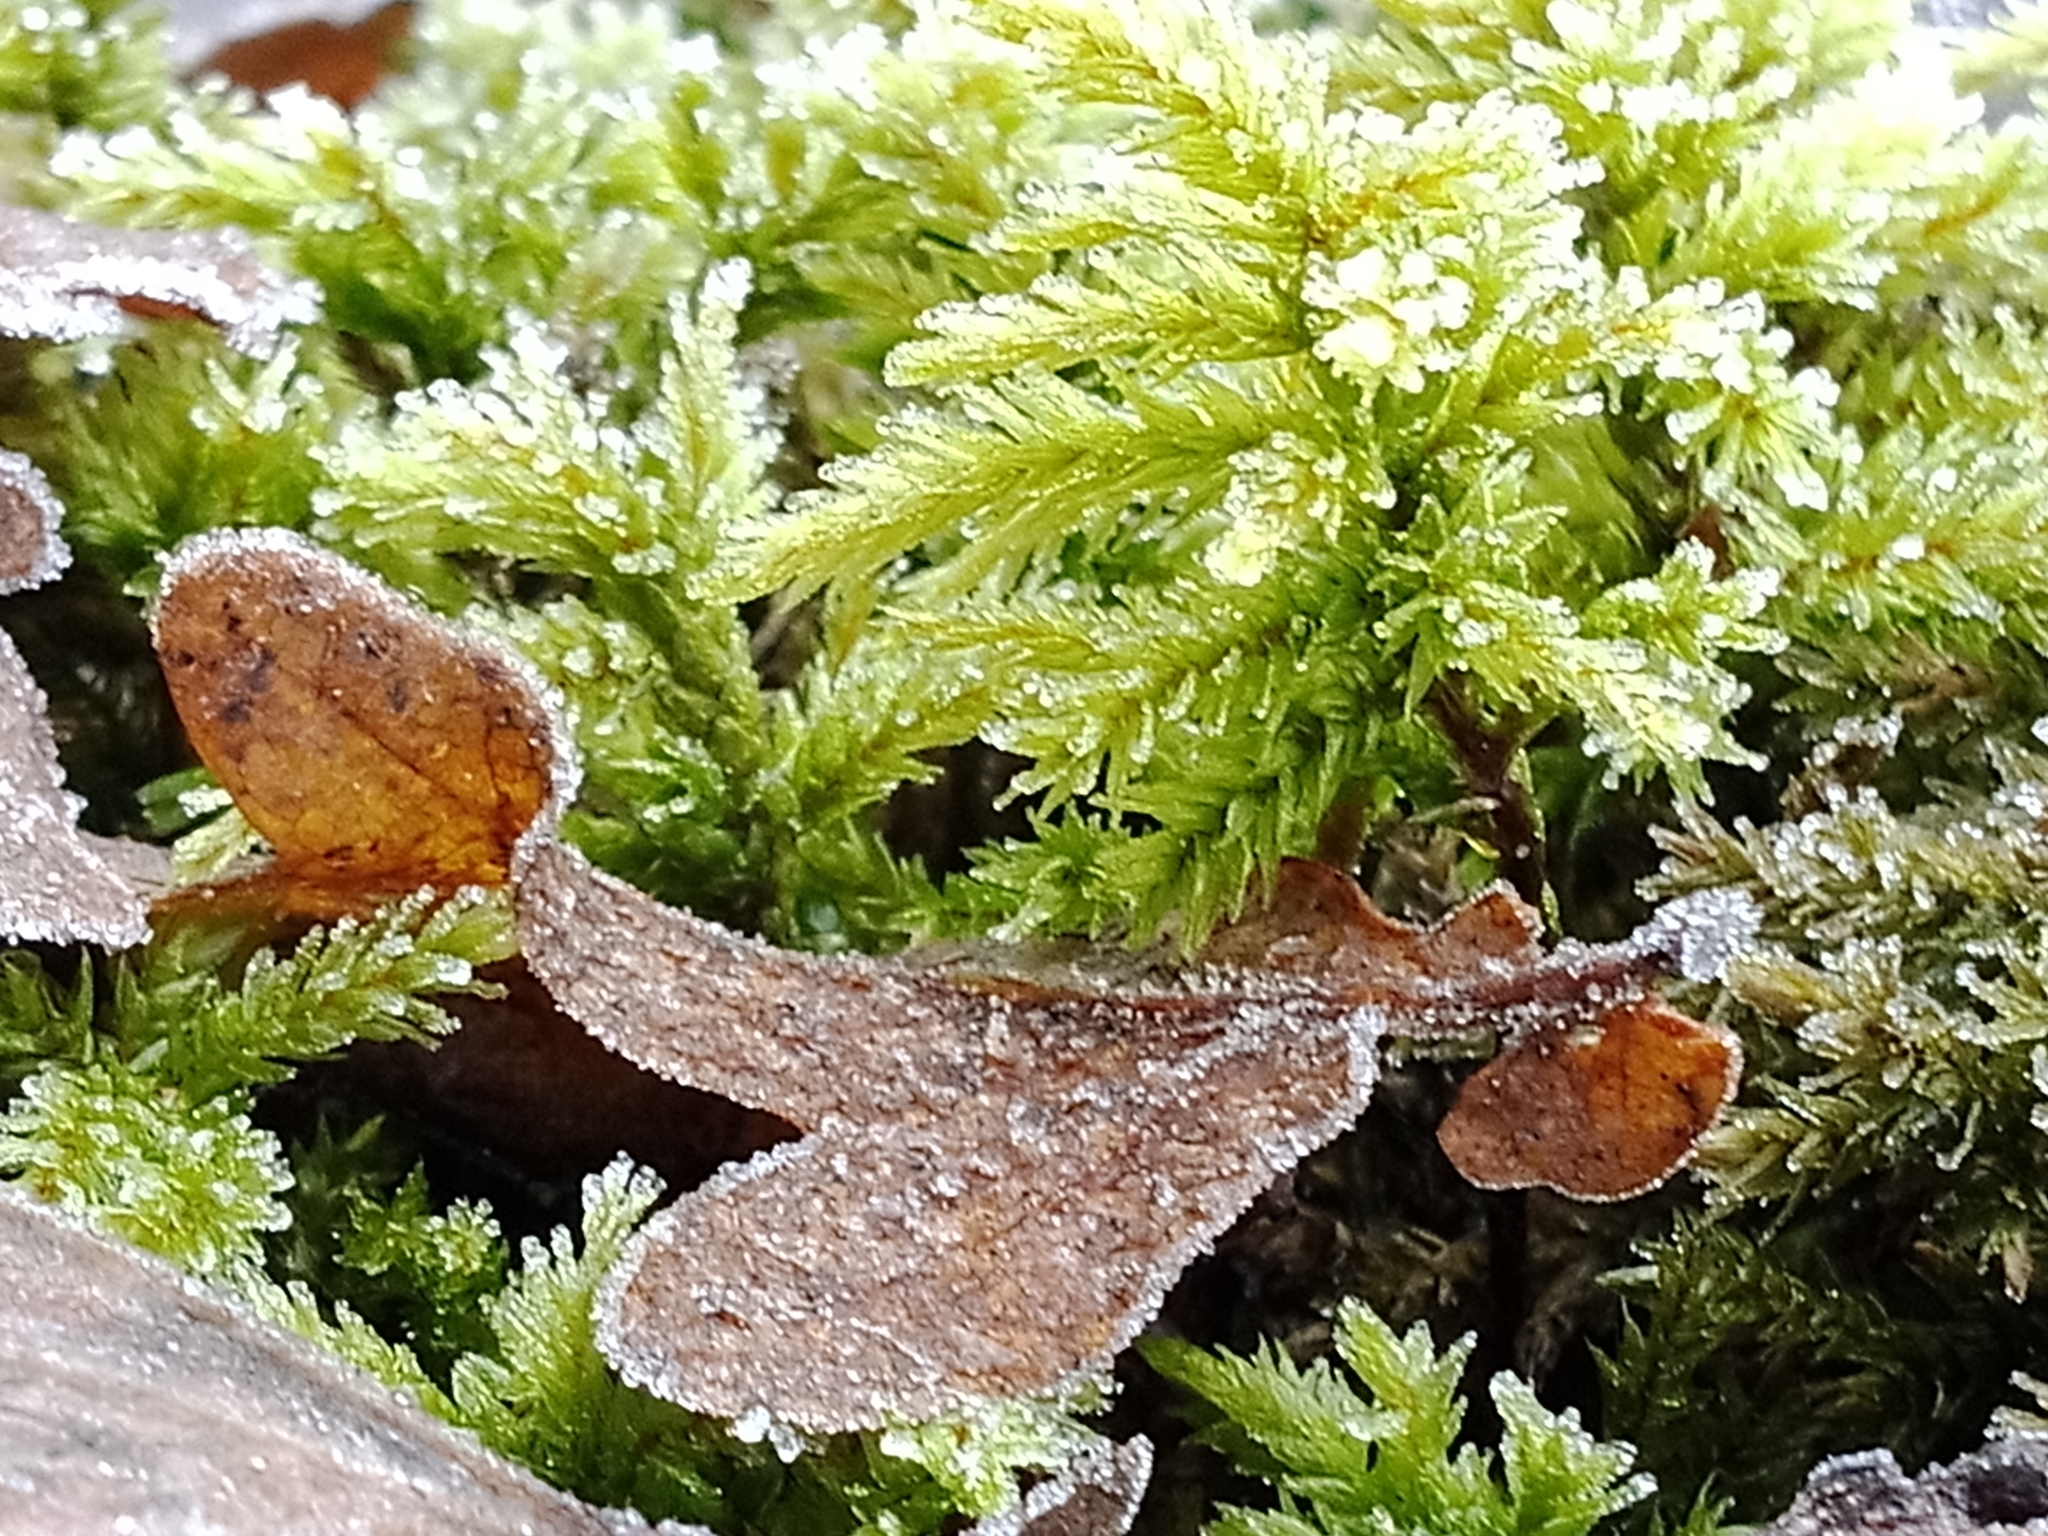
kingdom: Plantae
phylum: Bryophyta
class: Bryopsida
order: Hypnales
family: Climaciaceae
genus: Climacium
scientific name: Climacium dendroides
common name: Northern tree moss
